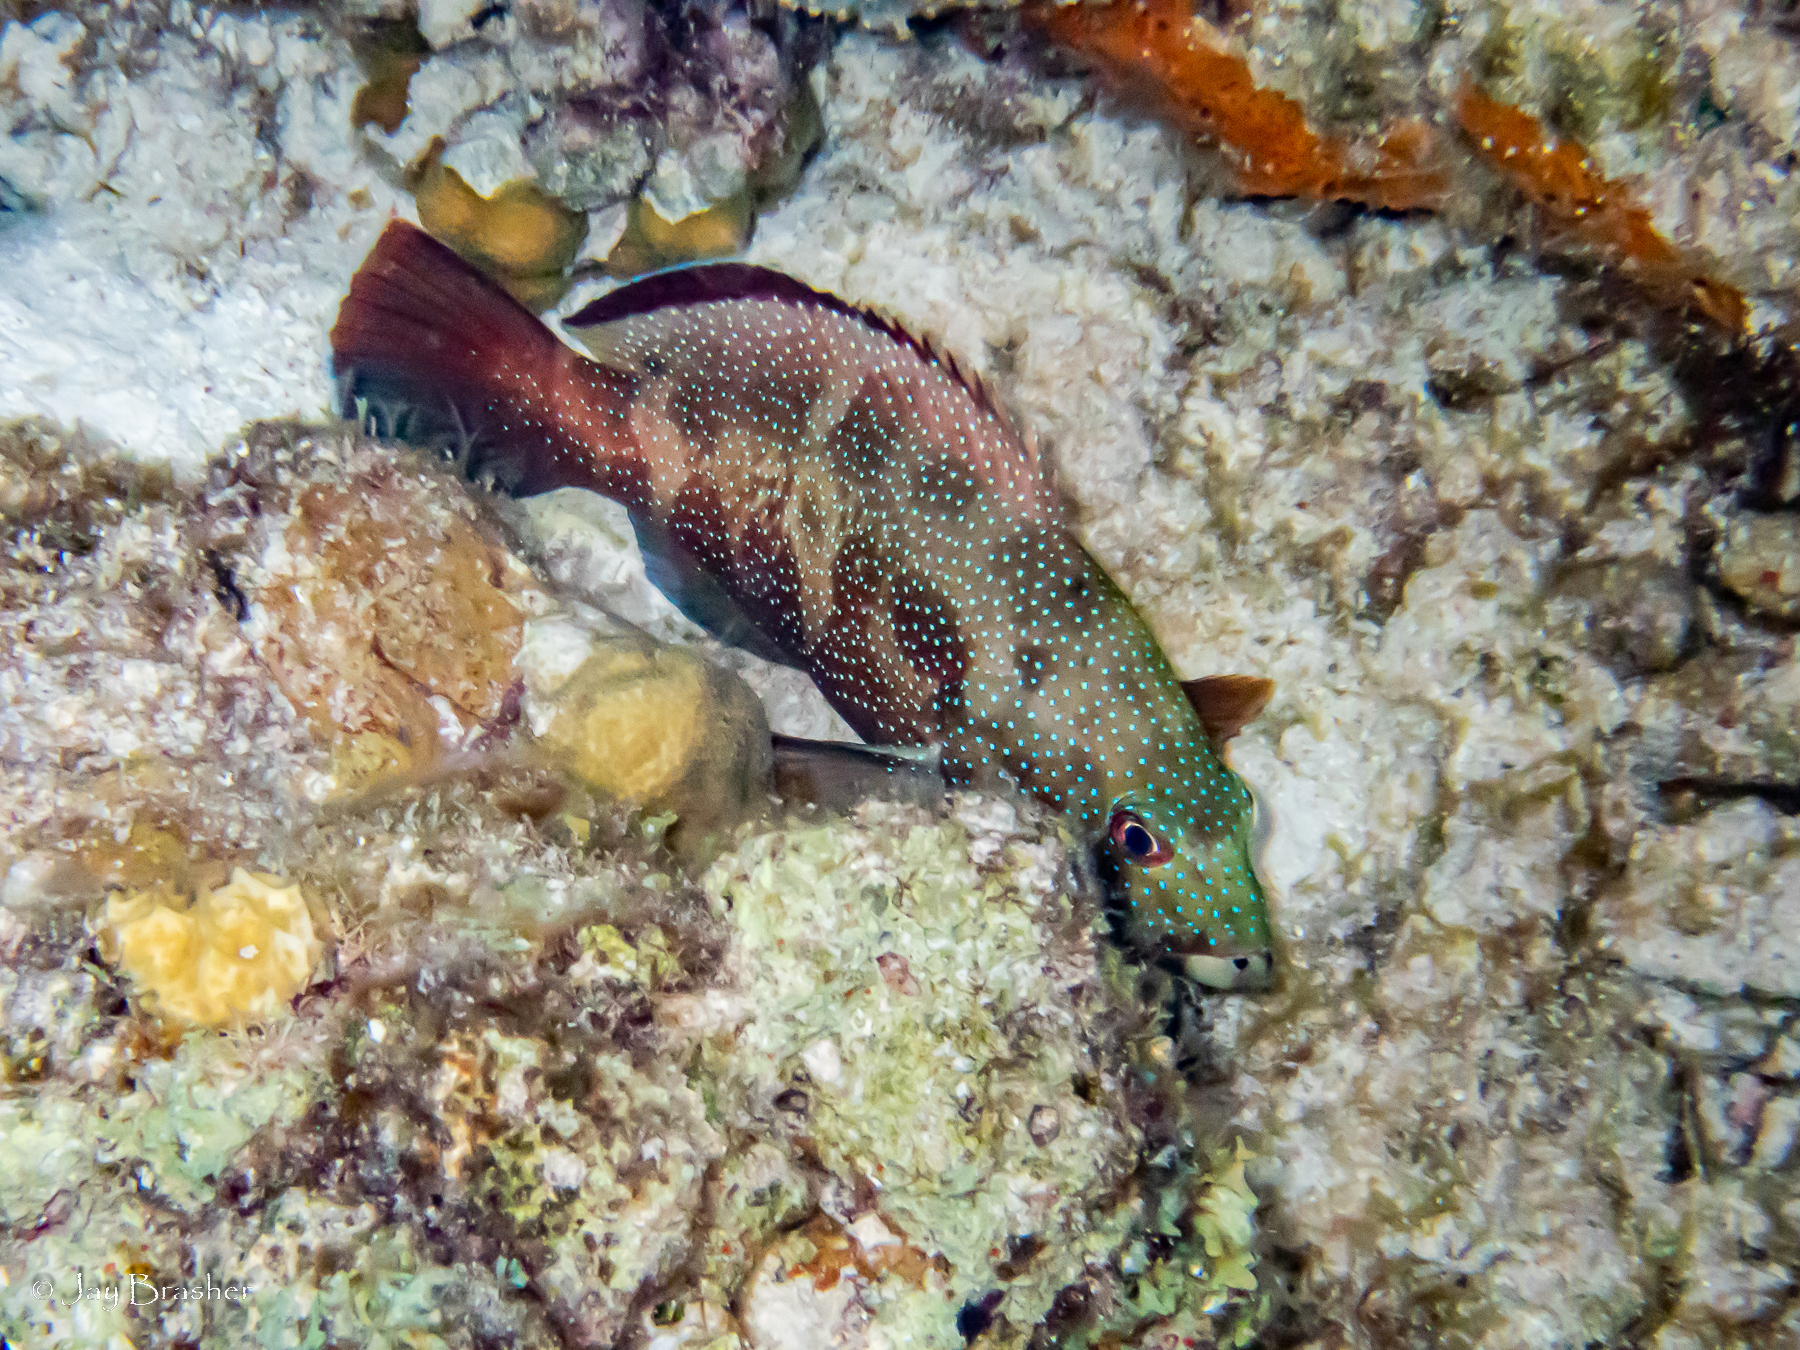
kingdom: Animalia
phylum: Chordata
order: Perciformes
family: Serranidae
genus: Cephalopholis
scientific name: Cephalopholis fulva
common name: Butterfish
